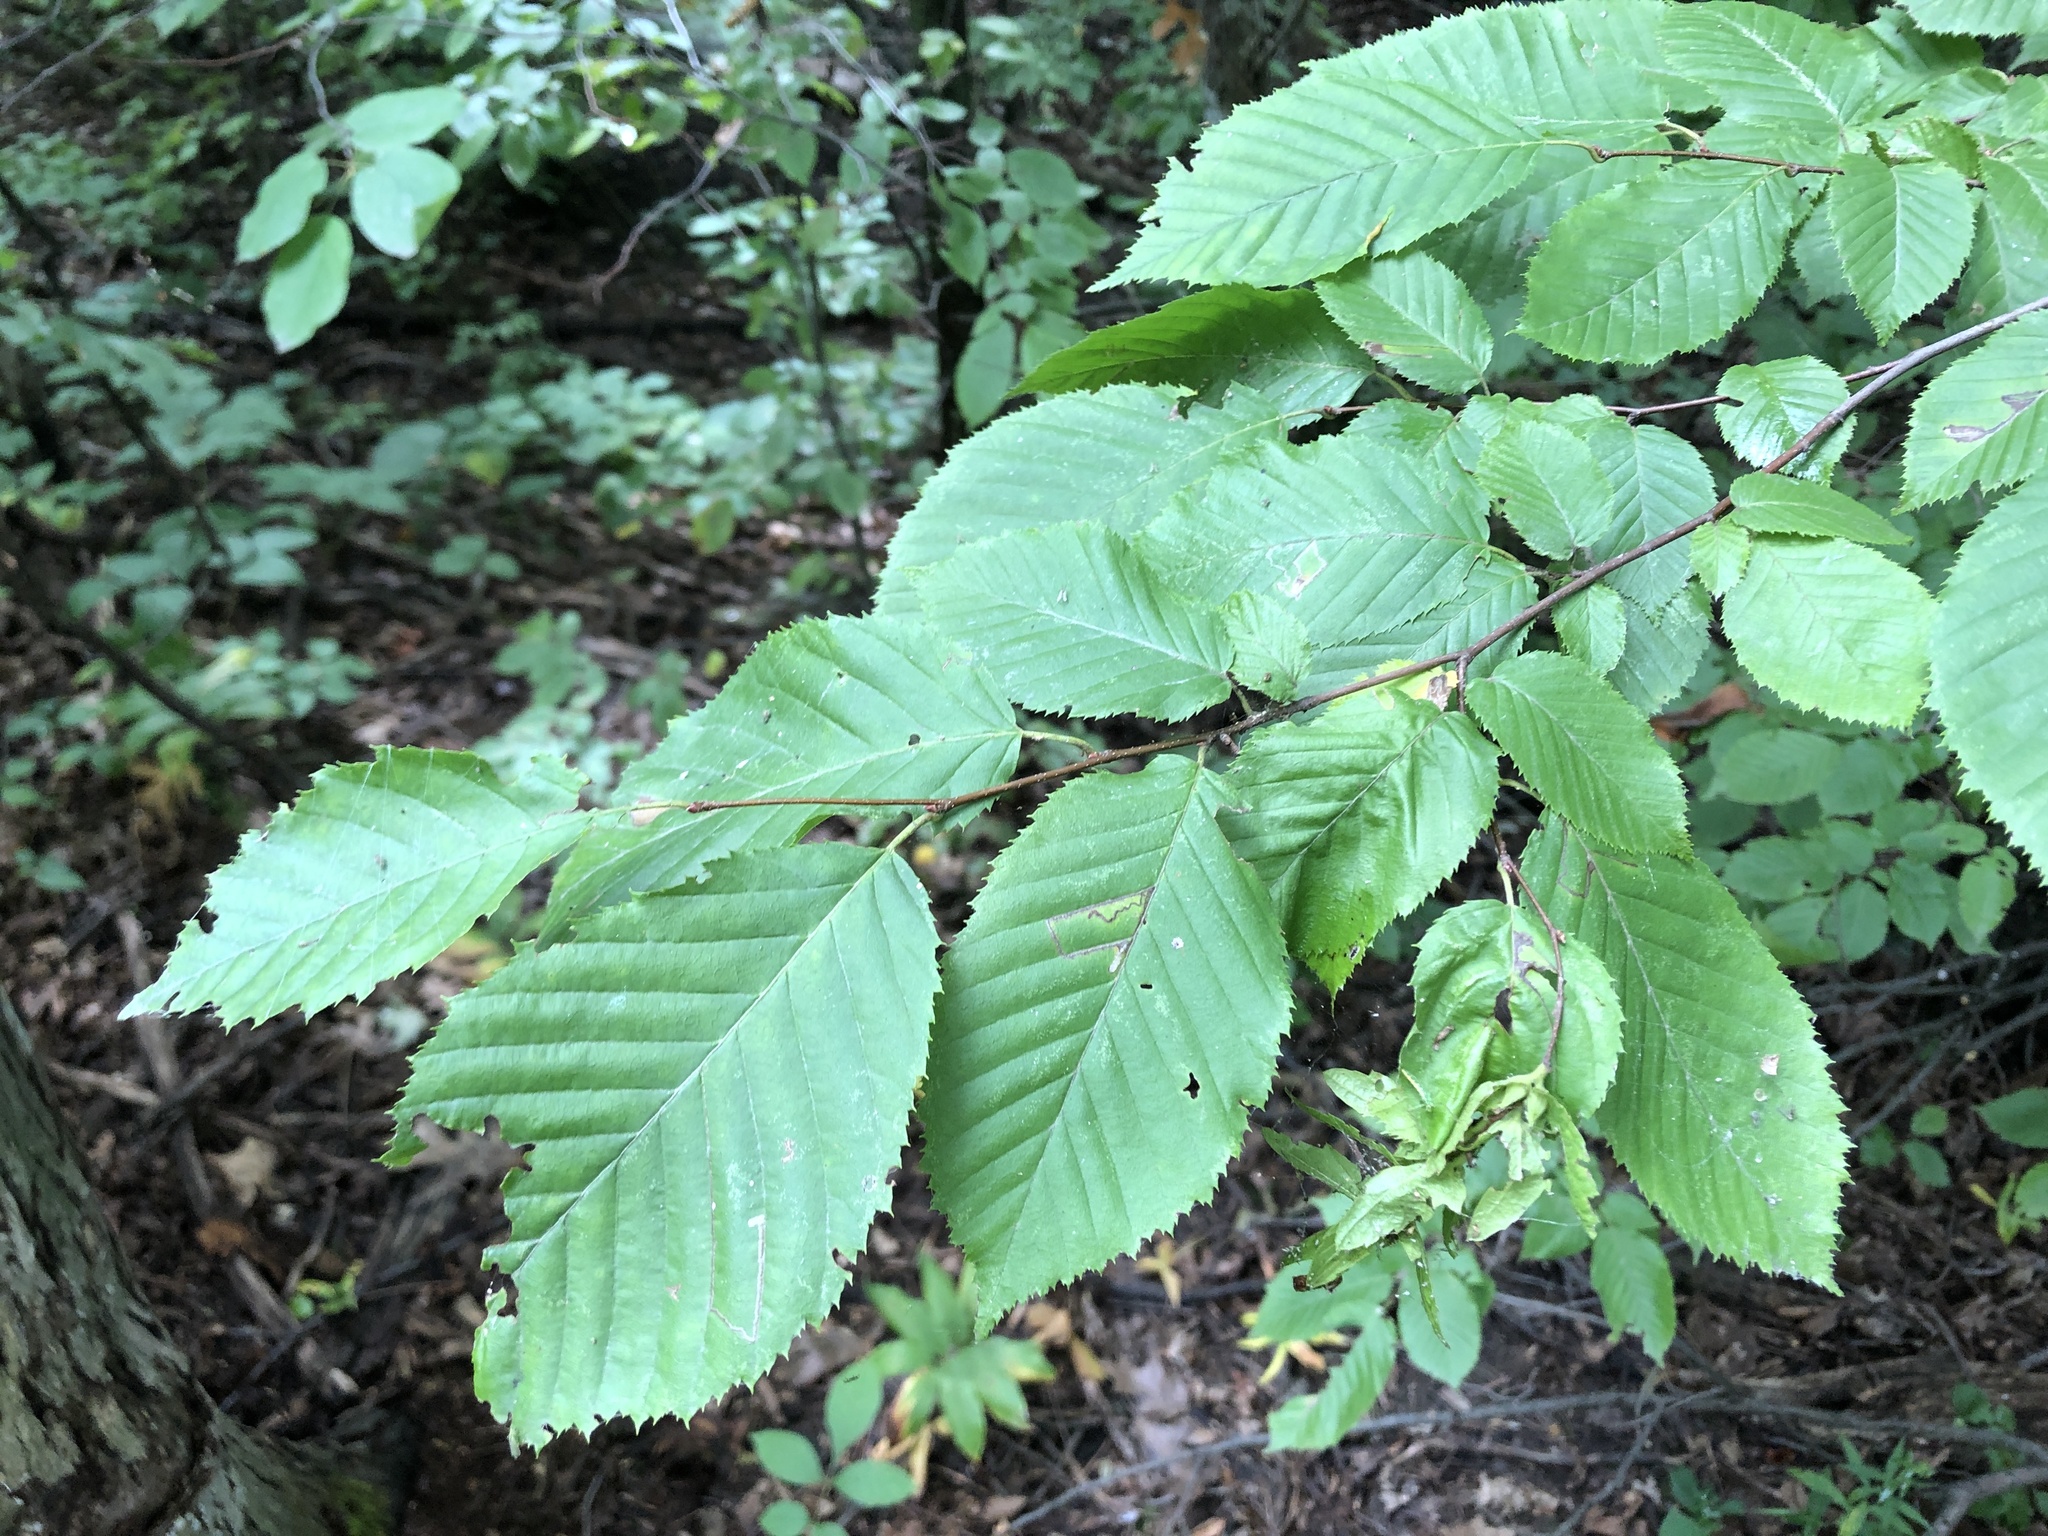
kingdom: Plantae
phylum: Tracheophyta
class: Magnoliopsida
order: Fagales
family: Betulaceae
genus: Carpinus
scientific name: Carpinus caroliniana
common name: American hornbeam
